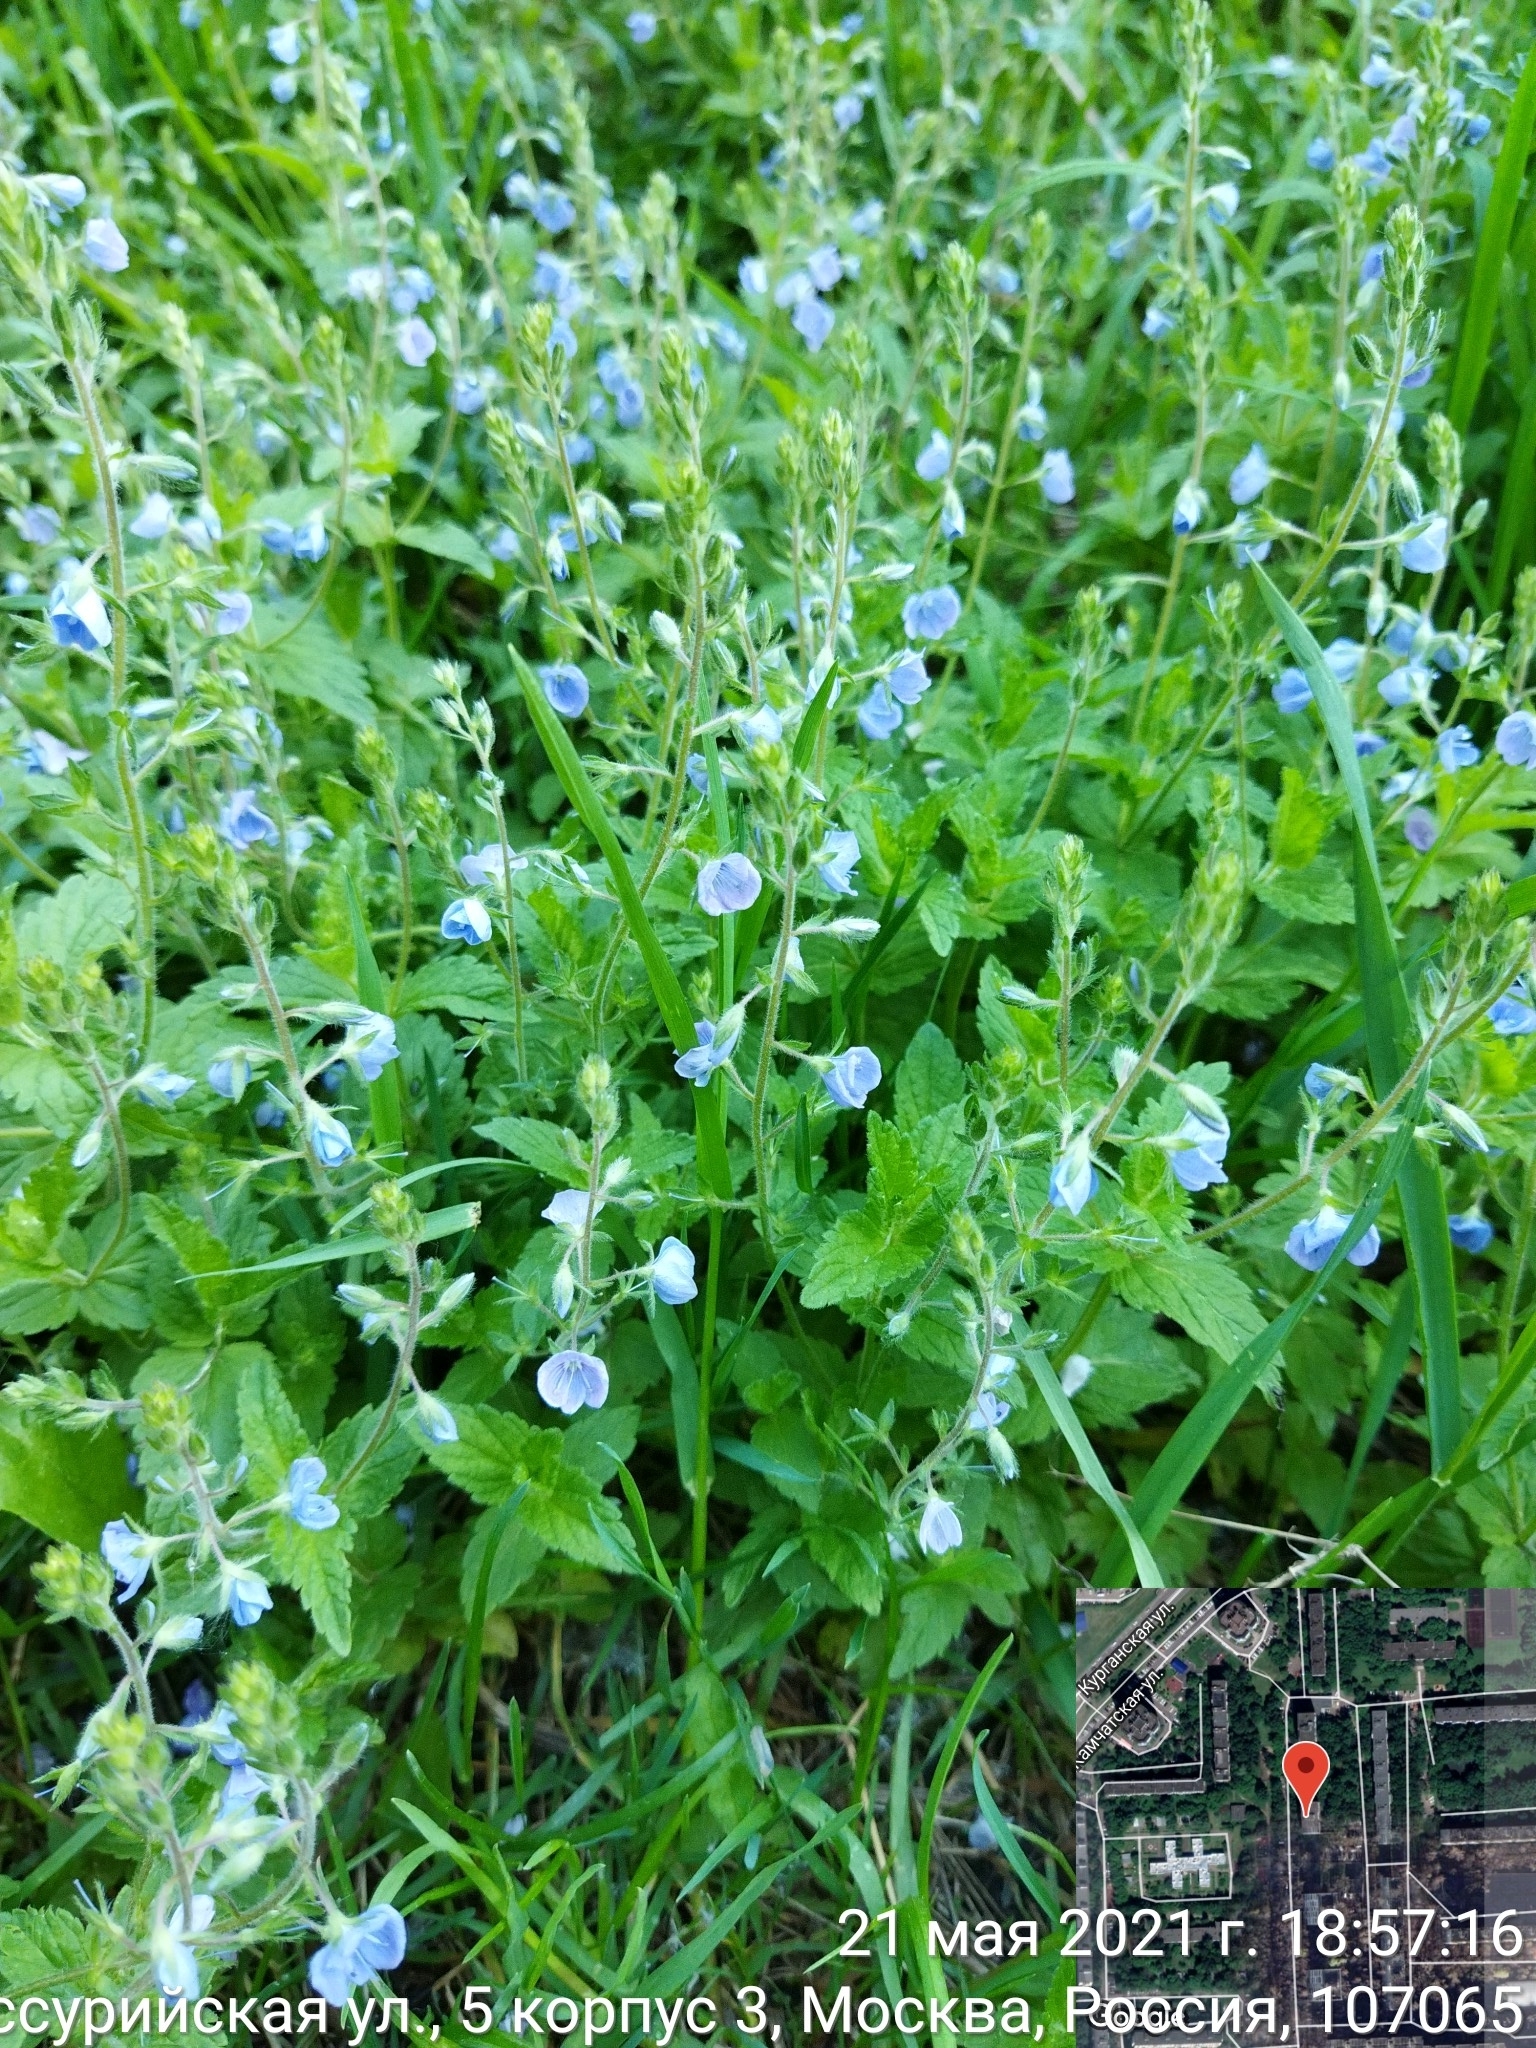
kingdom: Plantae
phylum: Tracheophyta
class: Magnoliopsida
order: Lamiales
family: Plantaginaceae
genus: Veronica
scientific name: Veronica chamaedrys
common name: Germander speedwell
